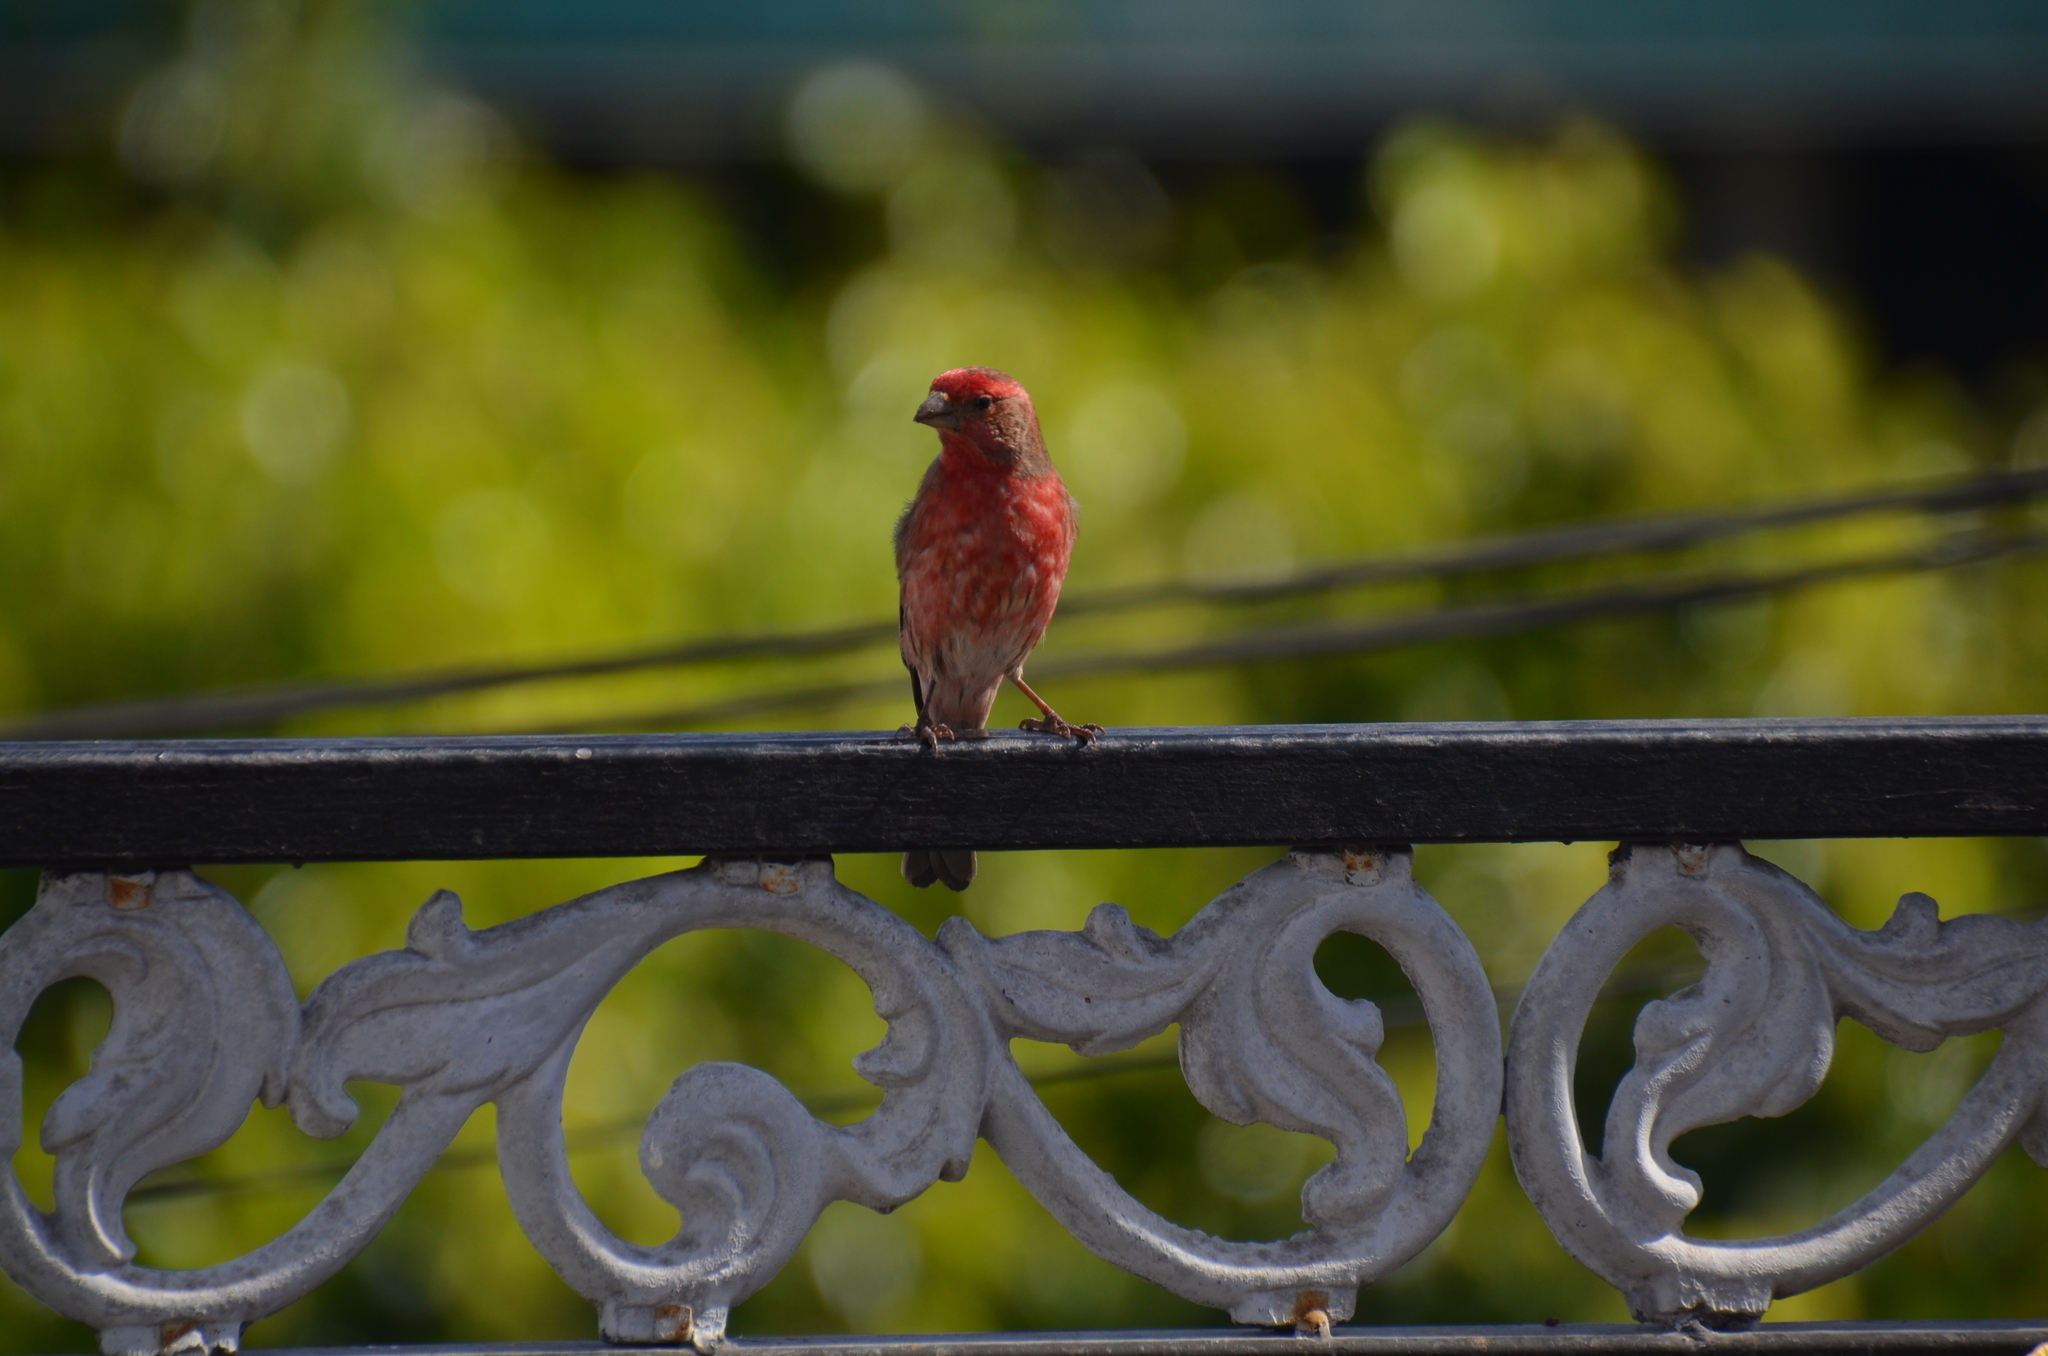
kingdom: Animalia
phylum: Chordata
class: Aves
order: Passeriformes
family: Fringillidae
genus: Haemorhous
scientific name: Haemorhous mexicanus
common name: House finch
